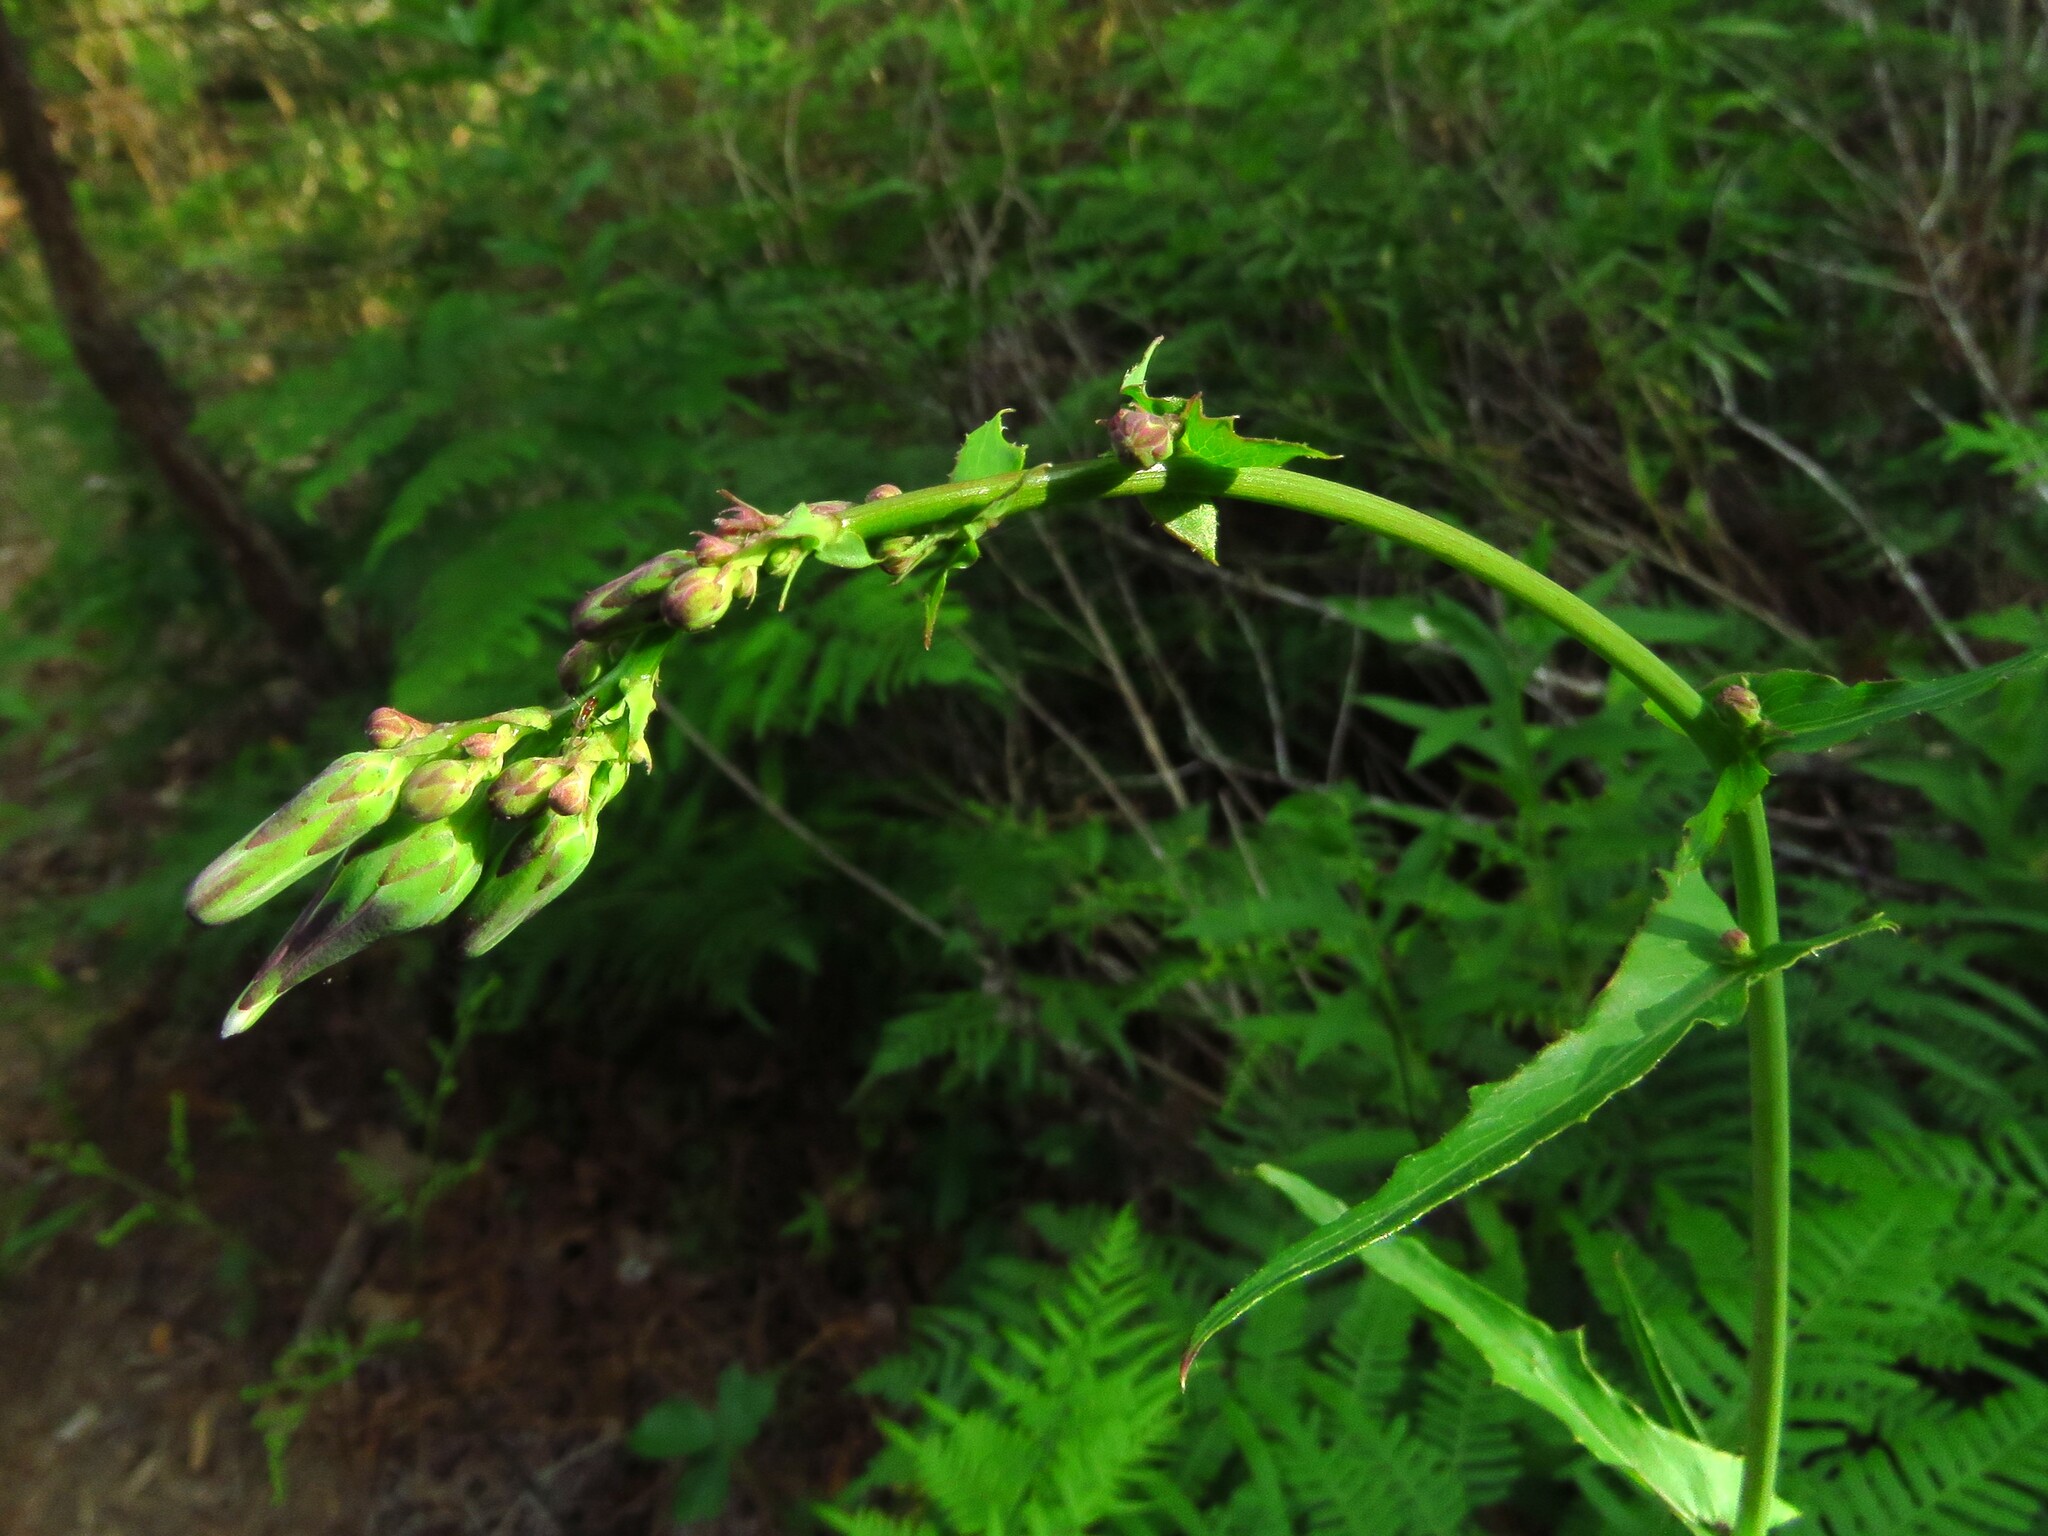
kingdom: Plantae
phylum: Tracheophyta
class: Magnoliopsida
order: Asterales
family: Asteraceae
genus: Lactuca
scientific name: Lactuca ludoviciana
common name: Louisiana lettuce
